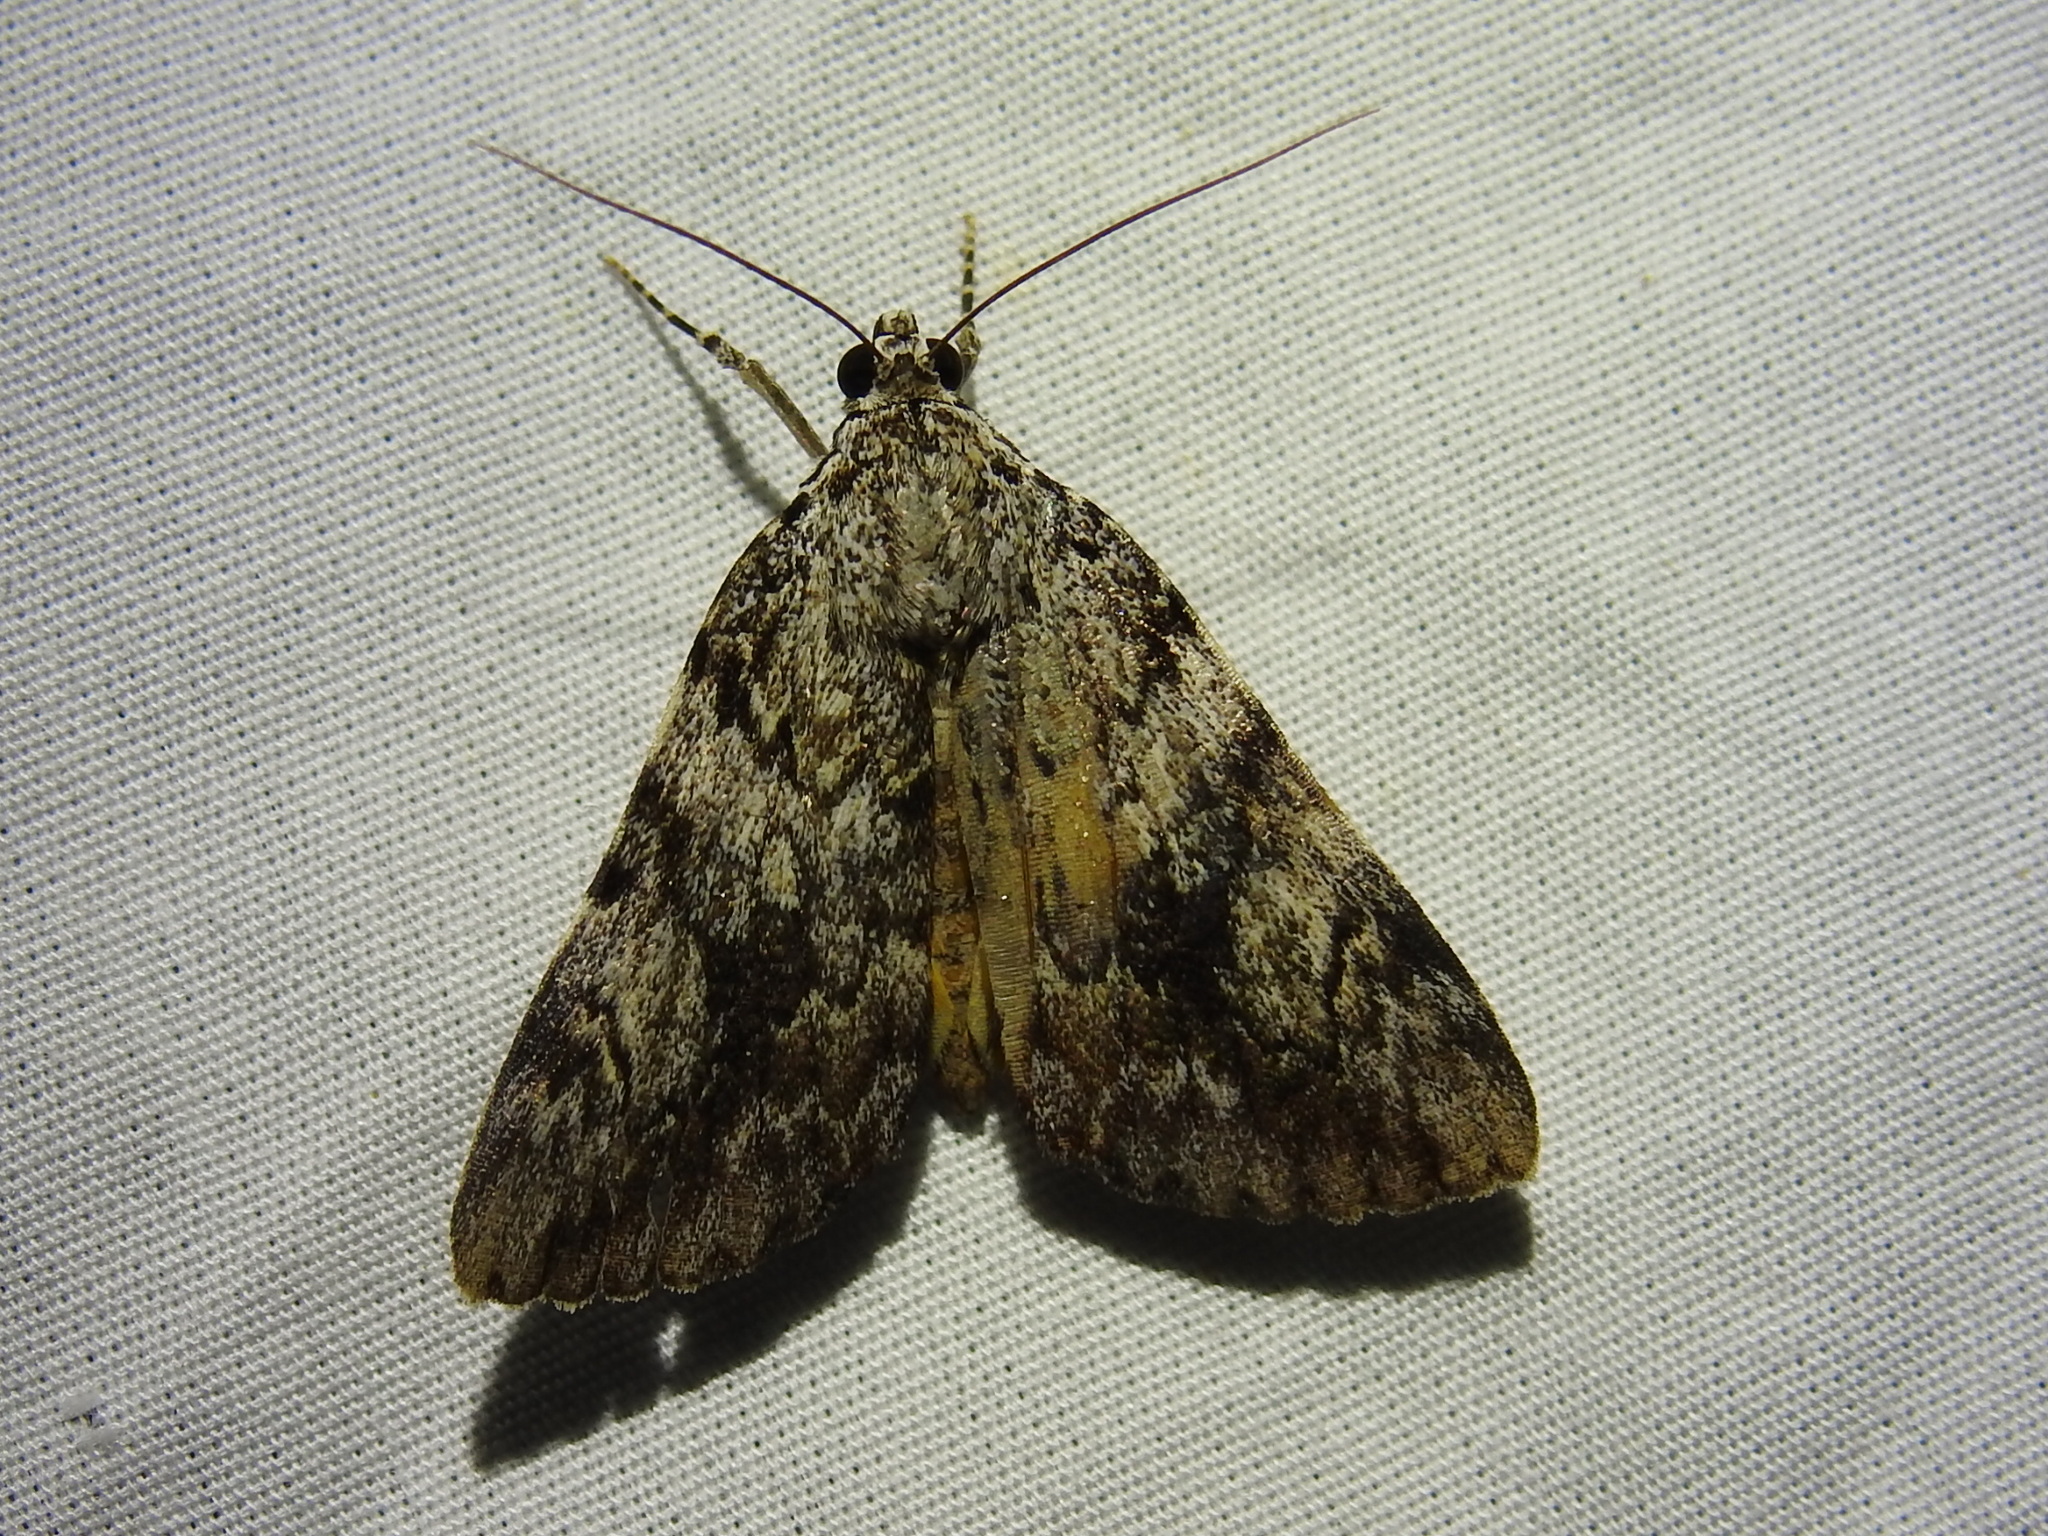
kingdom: Animalia
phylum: Arthropoda
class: Insecta
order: Lepidoptera
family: Erebidae
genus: Catocala
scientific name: Catocala lineella
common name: Little lined underwing
